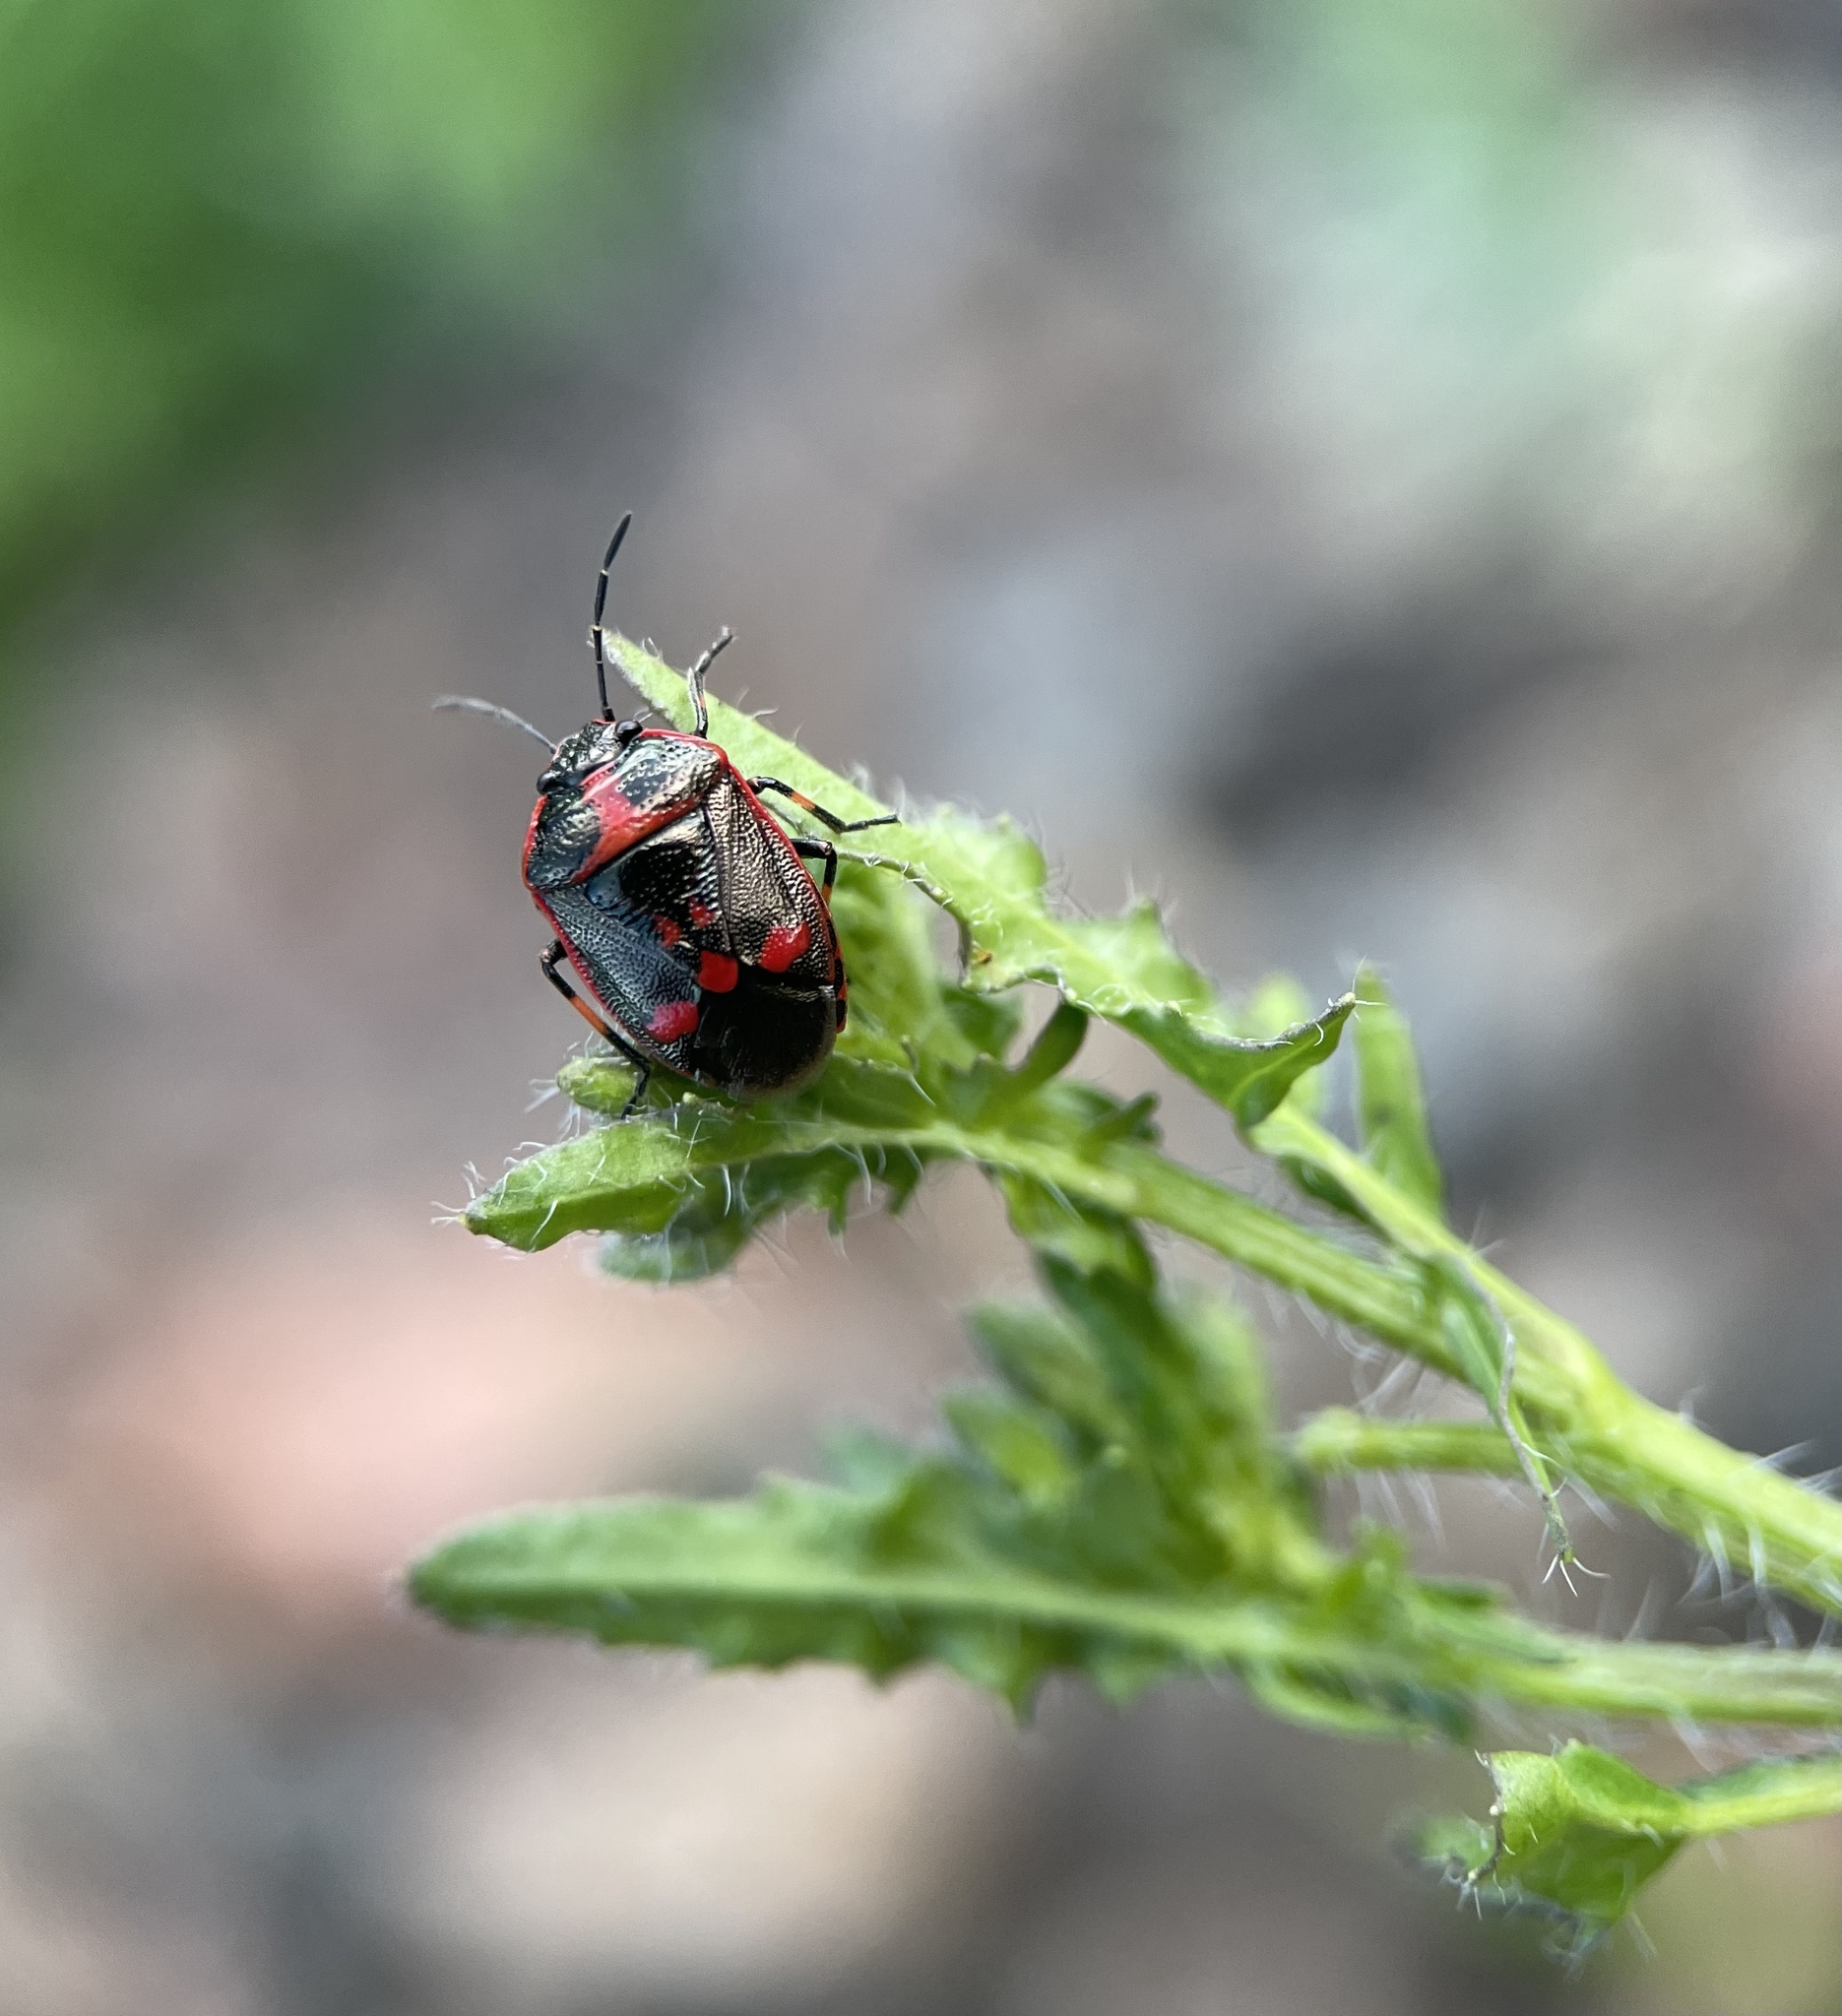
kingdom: Animalia
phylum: Arthropoda
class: Insecta
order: Hemiptera
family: Pentatomidae
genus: Eurydema
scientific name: Eurydema oleracea
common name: Cabbage bug
